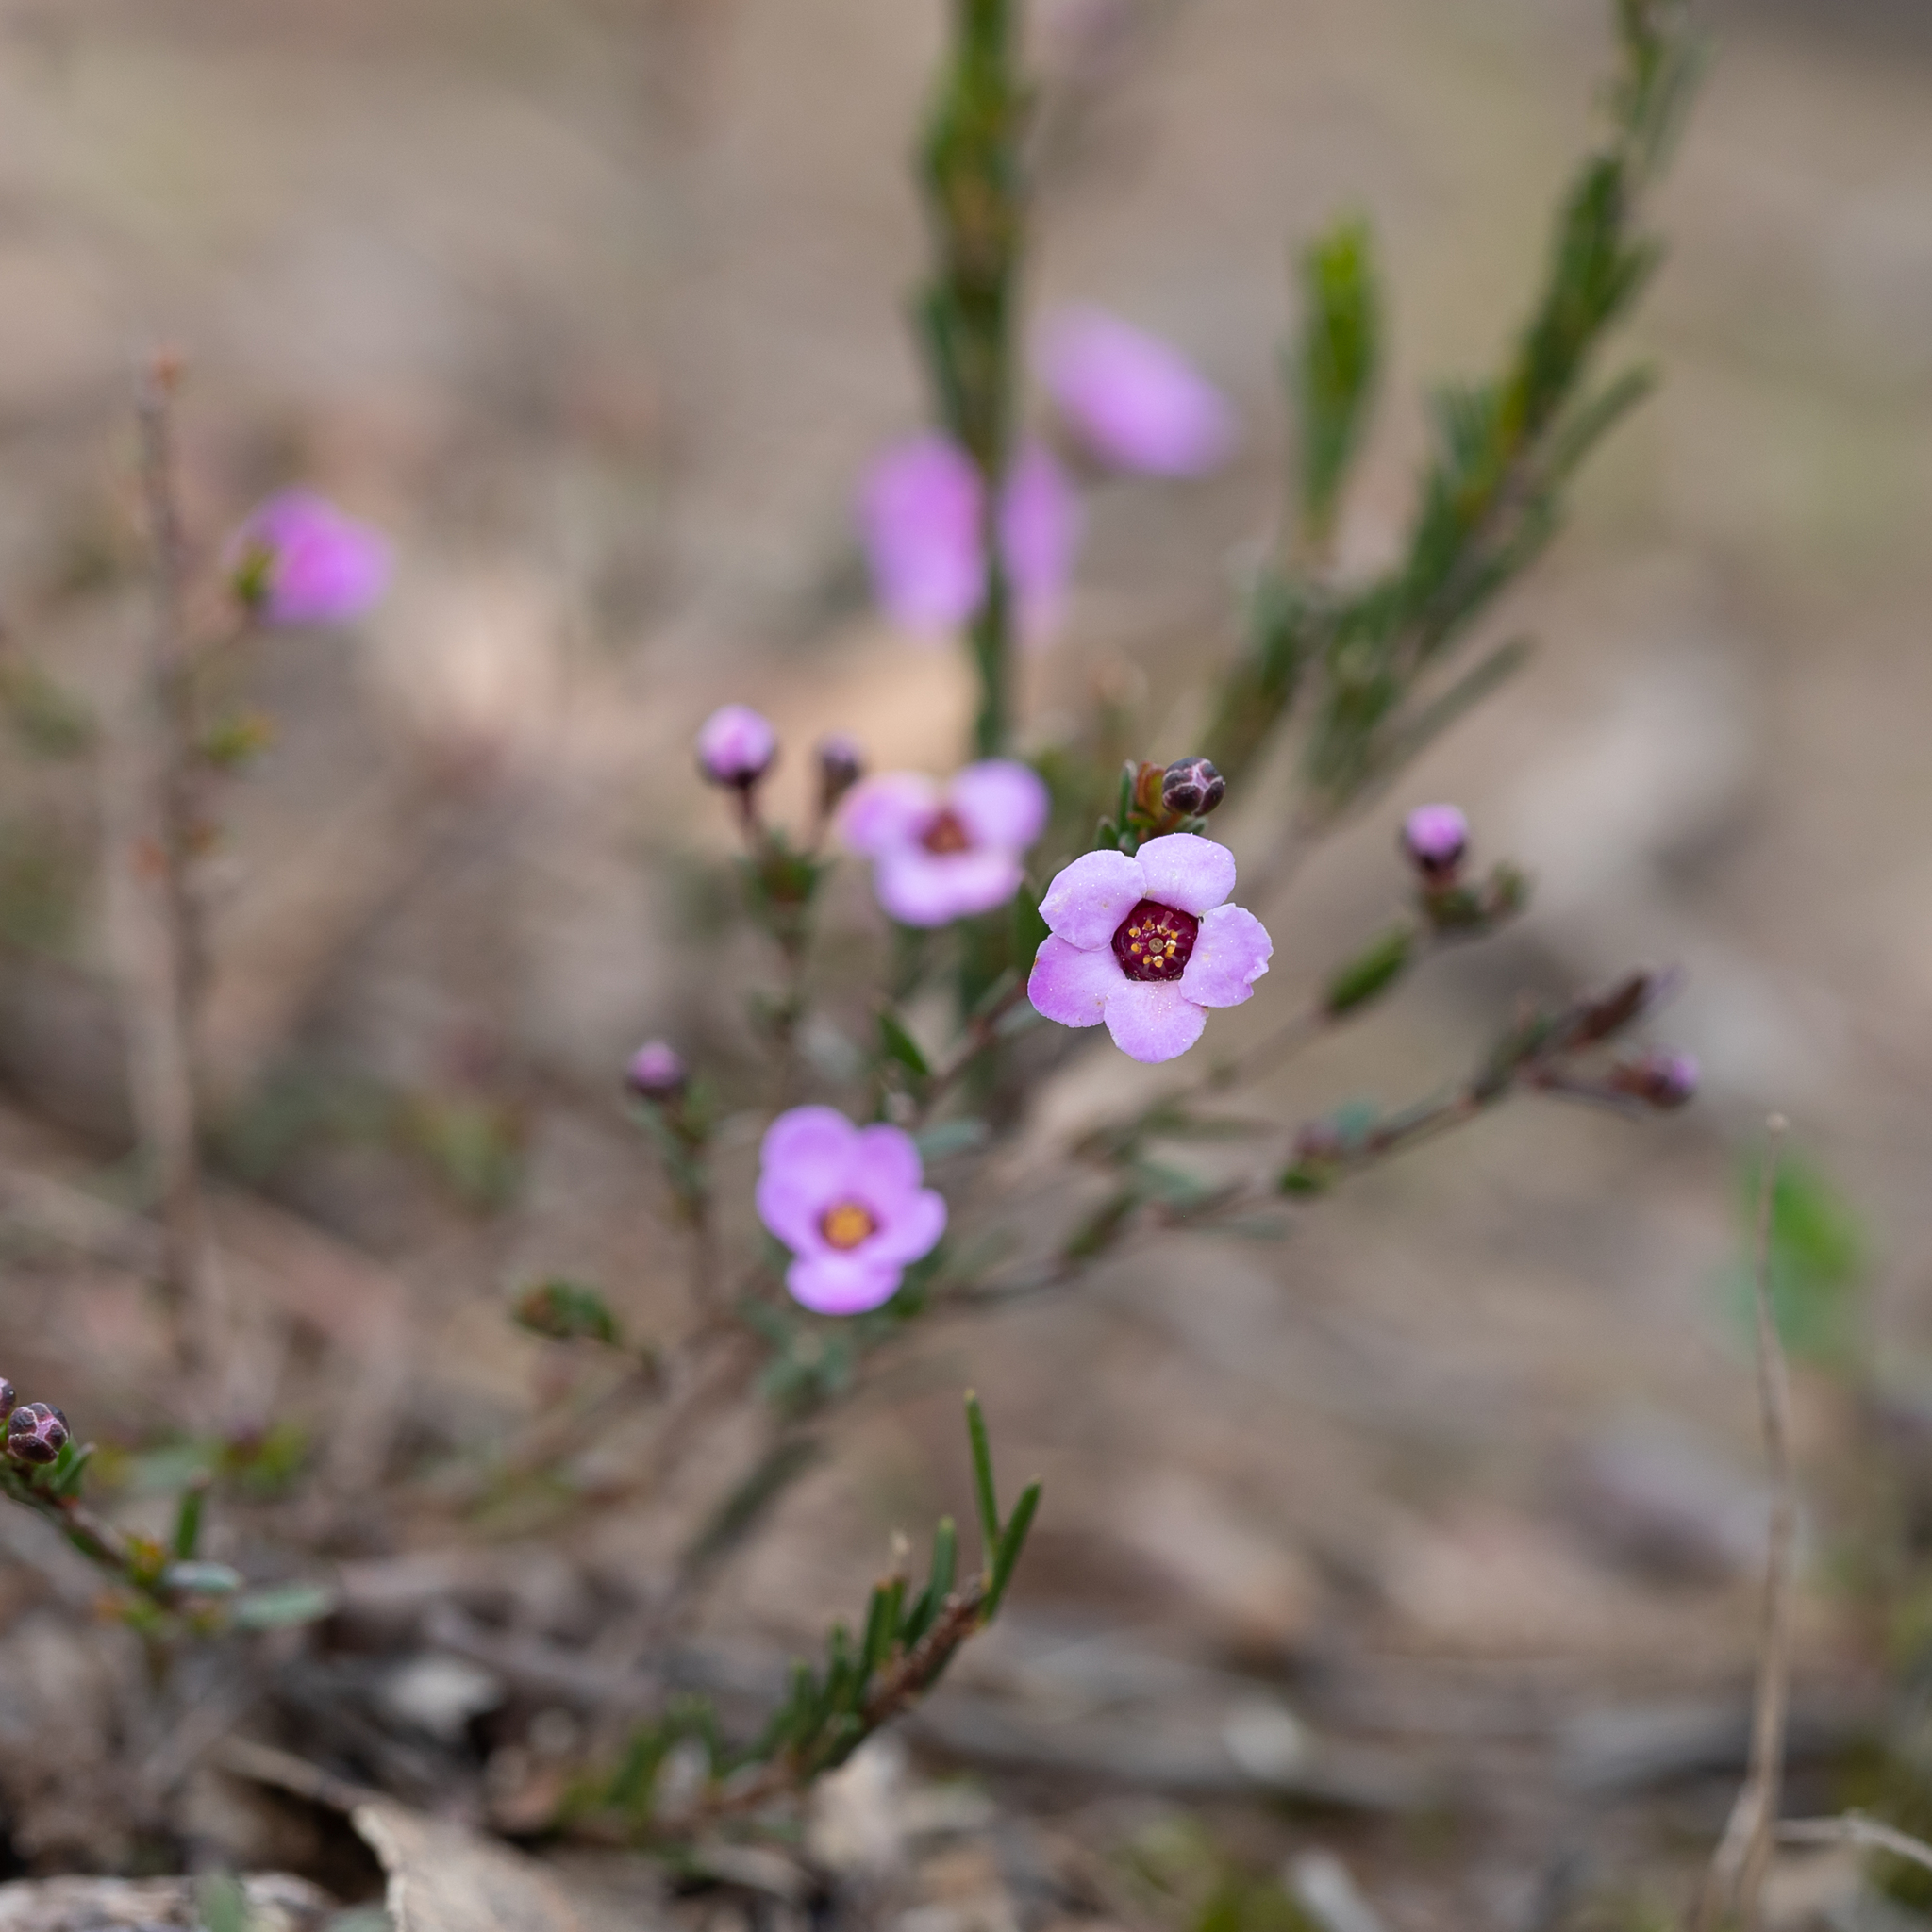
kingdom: Plantae
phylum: Tracheophyta
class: Magnoliopsida
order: Myrtales
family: Myrtaceae
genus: Euryomyrtus
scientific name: Euryomyrtus ramosissima
